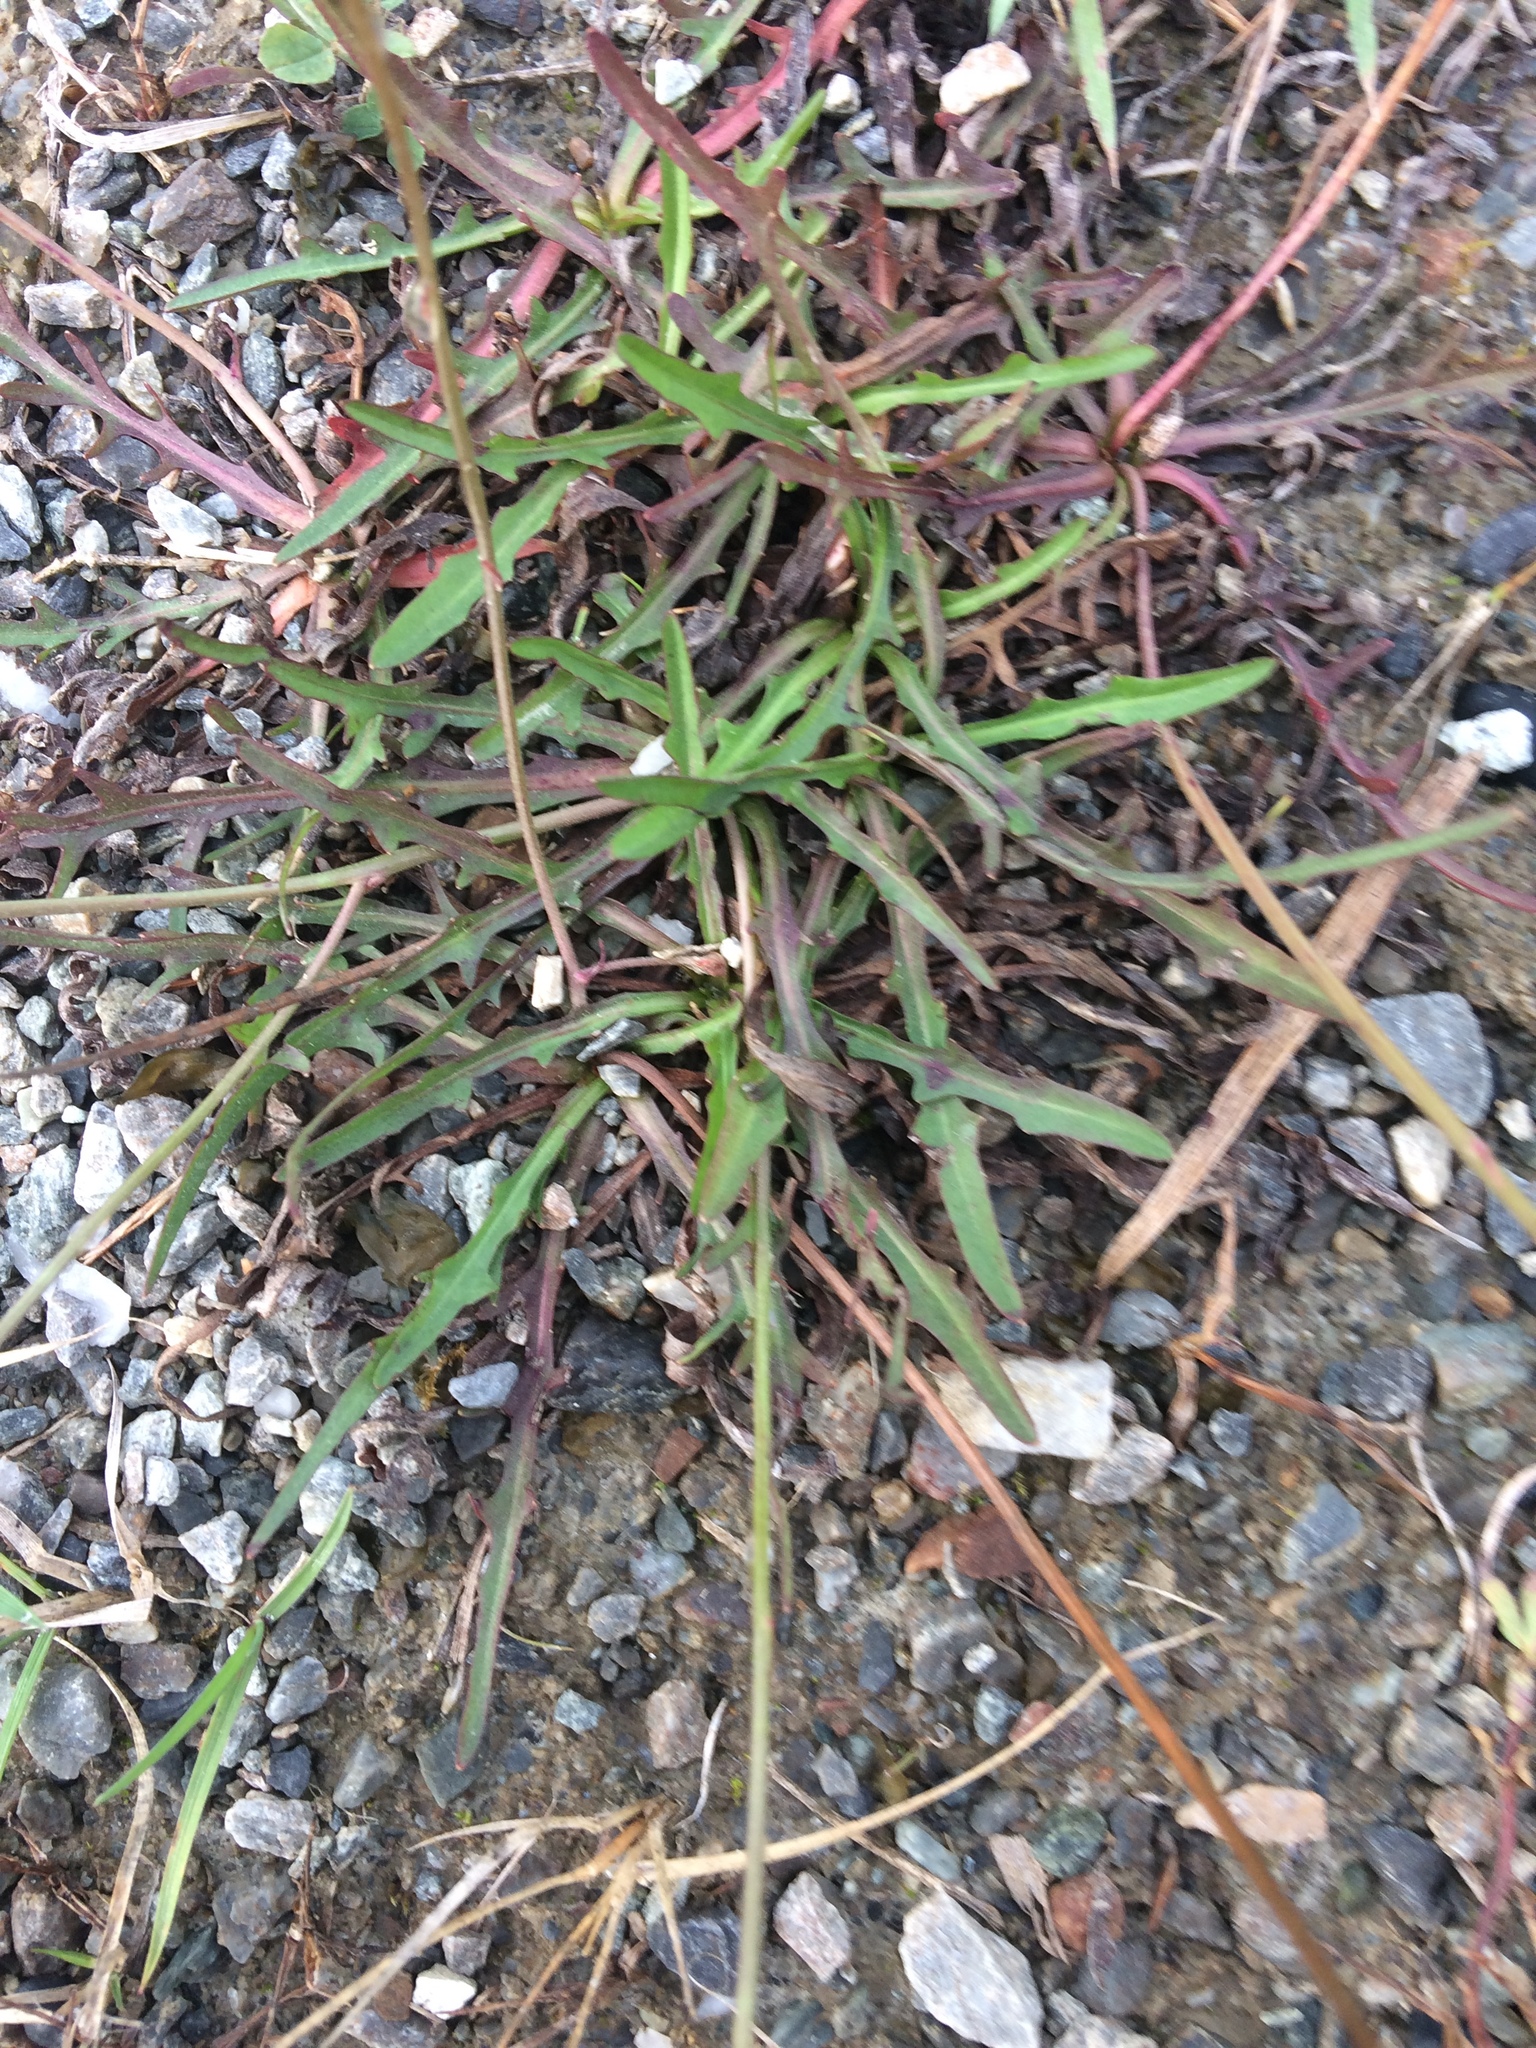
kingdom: Plantae
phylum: Tracheophyta
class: Magnoliopsida
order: Asterales
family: Asteraceae
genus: Scorzoneroides
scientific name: Scorzoneroides autumnalis
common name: Autumn hawkbit
